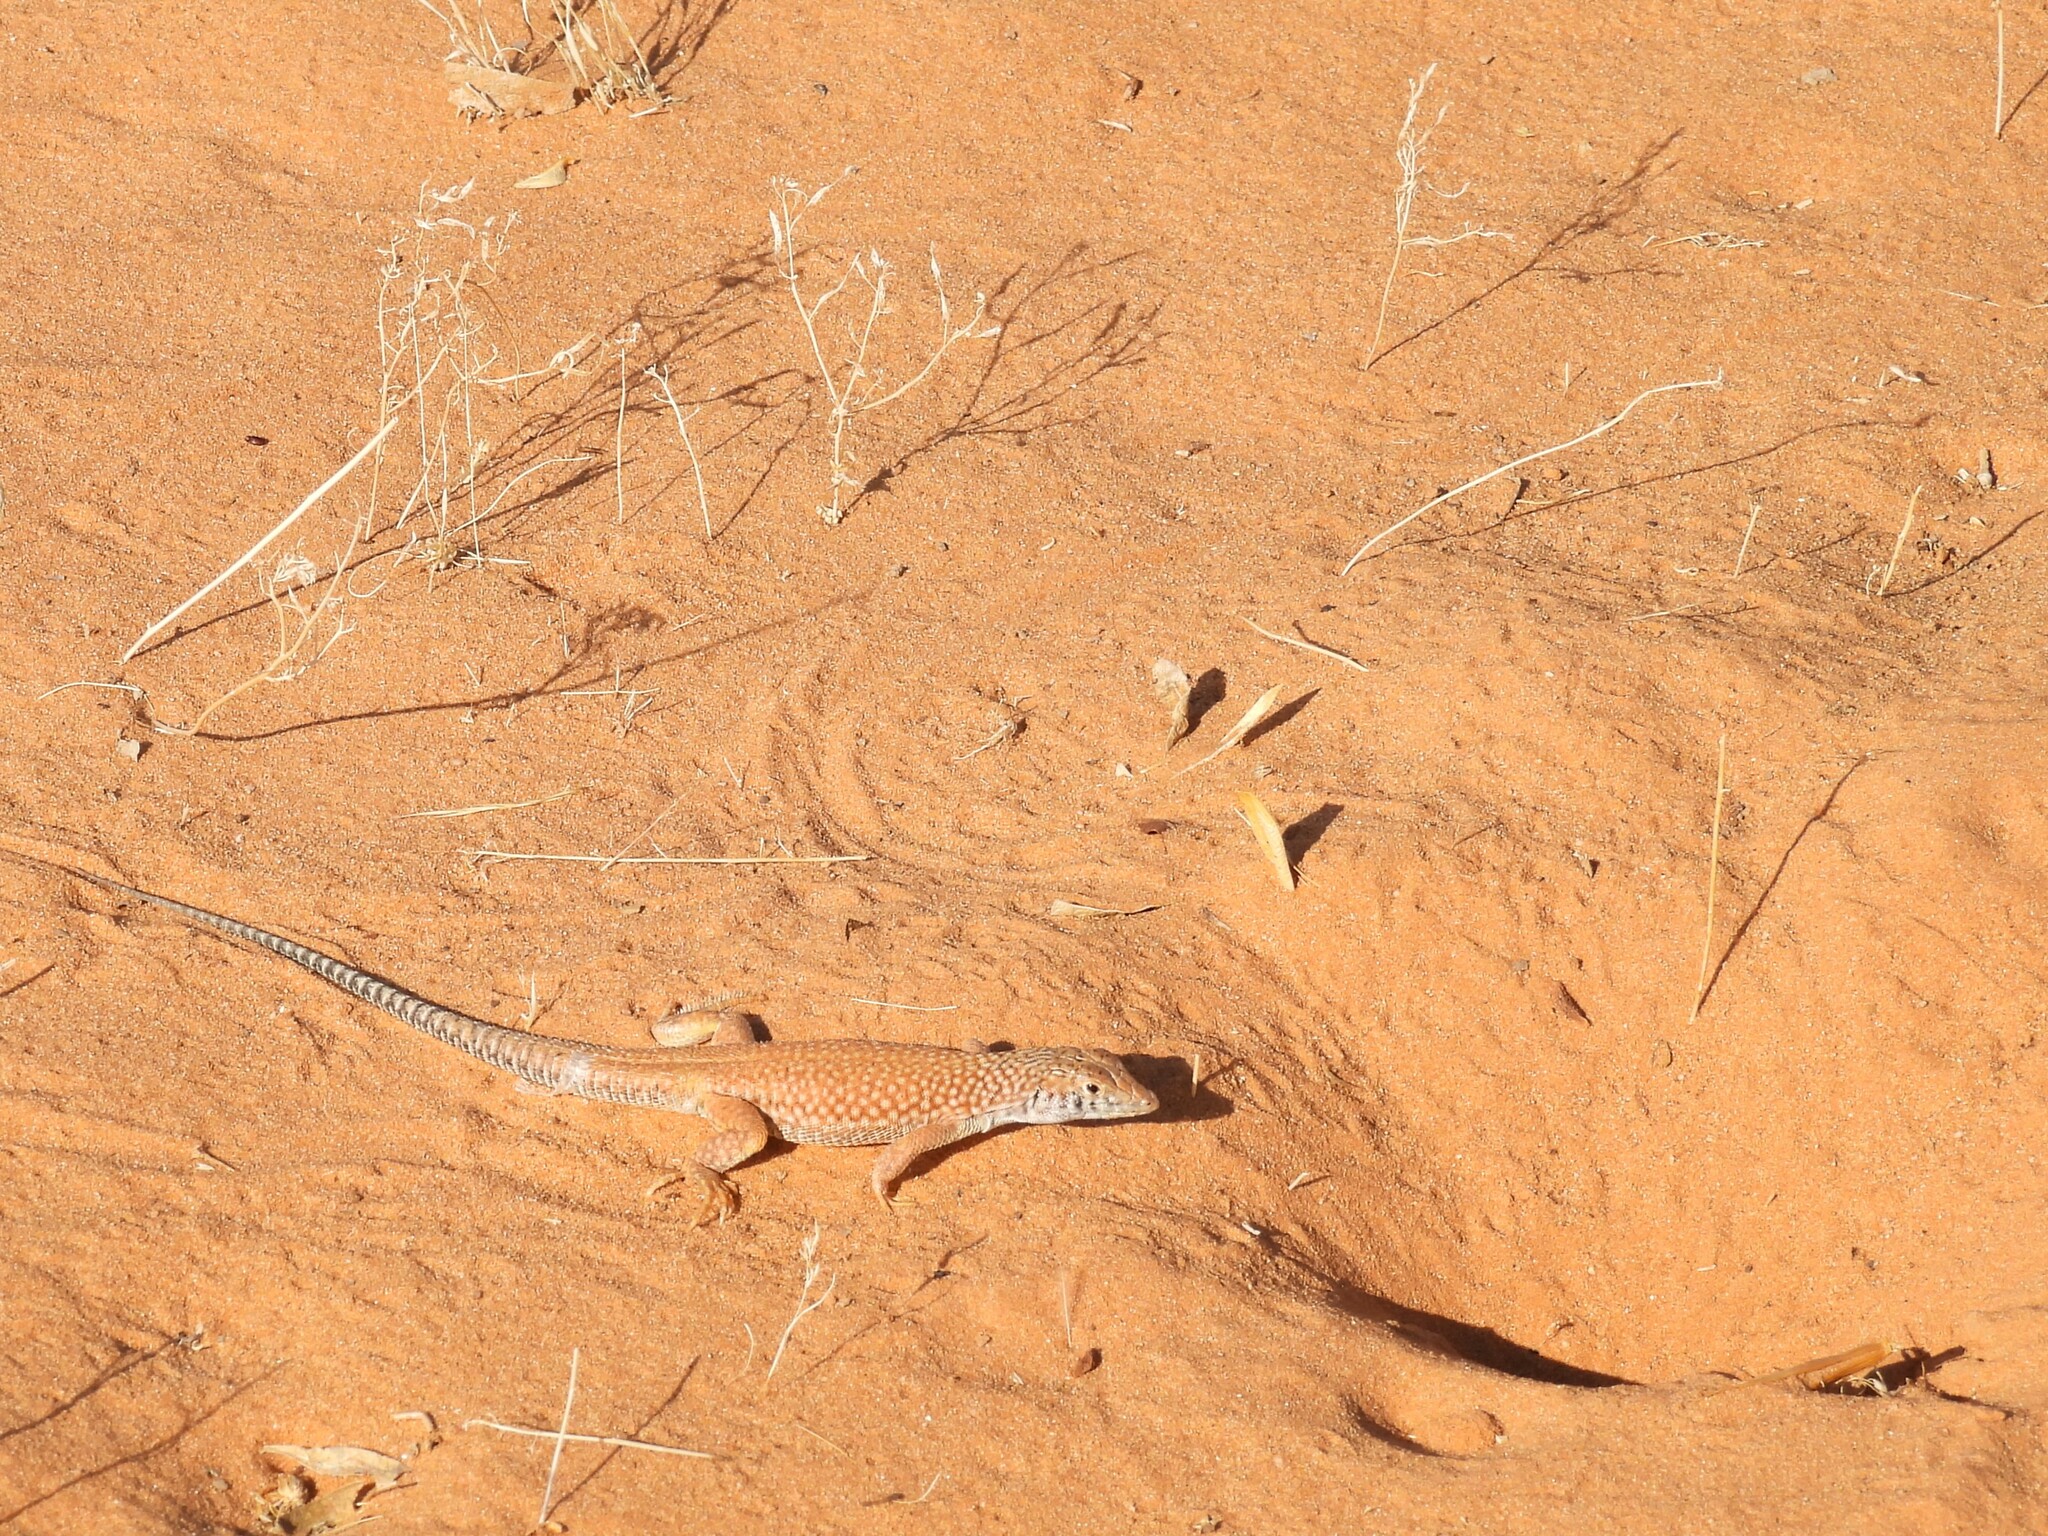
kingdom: Animalia
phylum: Chordata
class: Squamata
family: Lacertidae
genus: Acanthodactylus
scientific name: Acanthodactylus schmidti
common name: Schmidt's fringe-toed lizard
